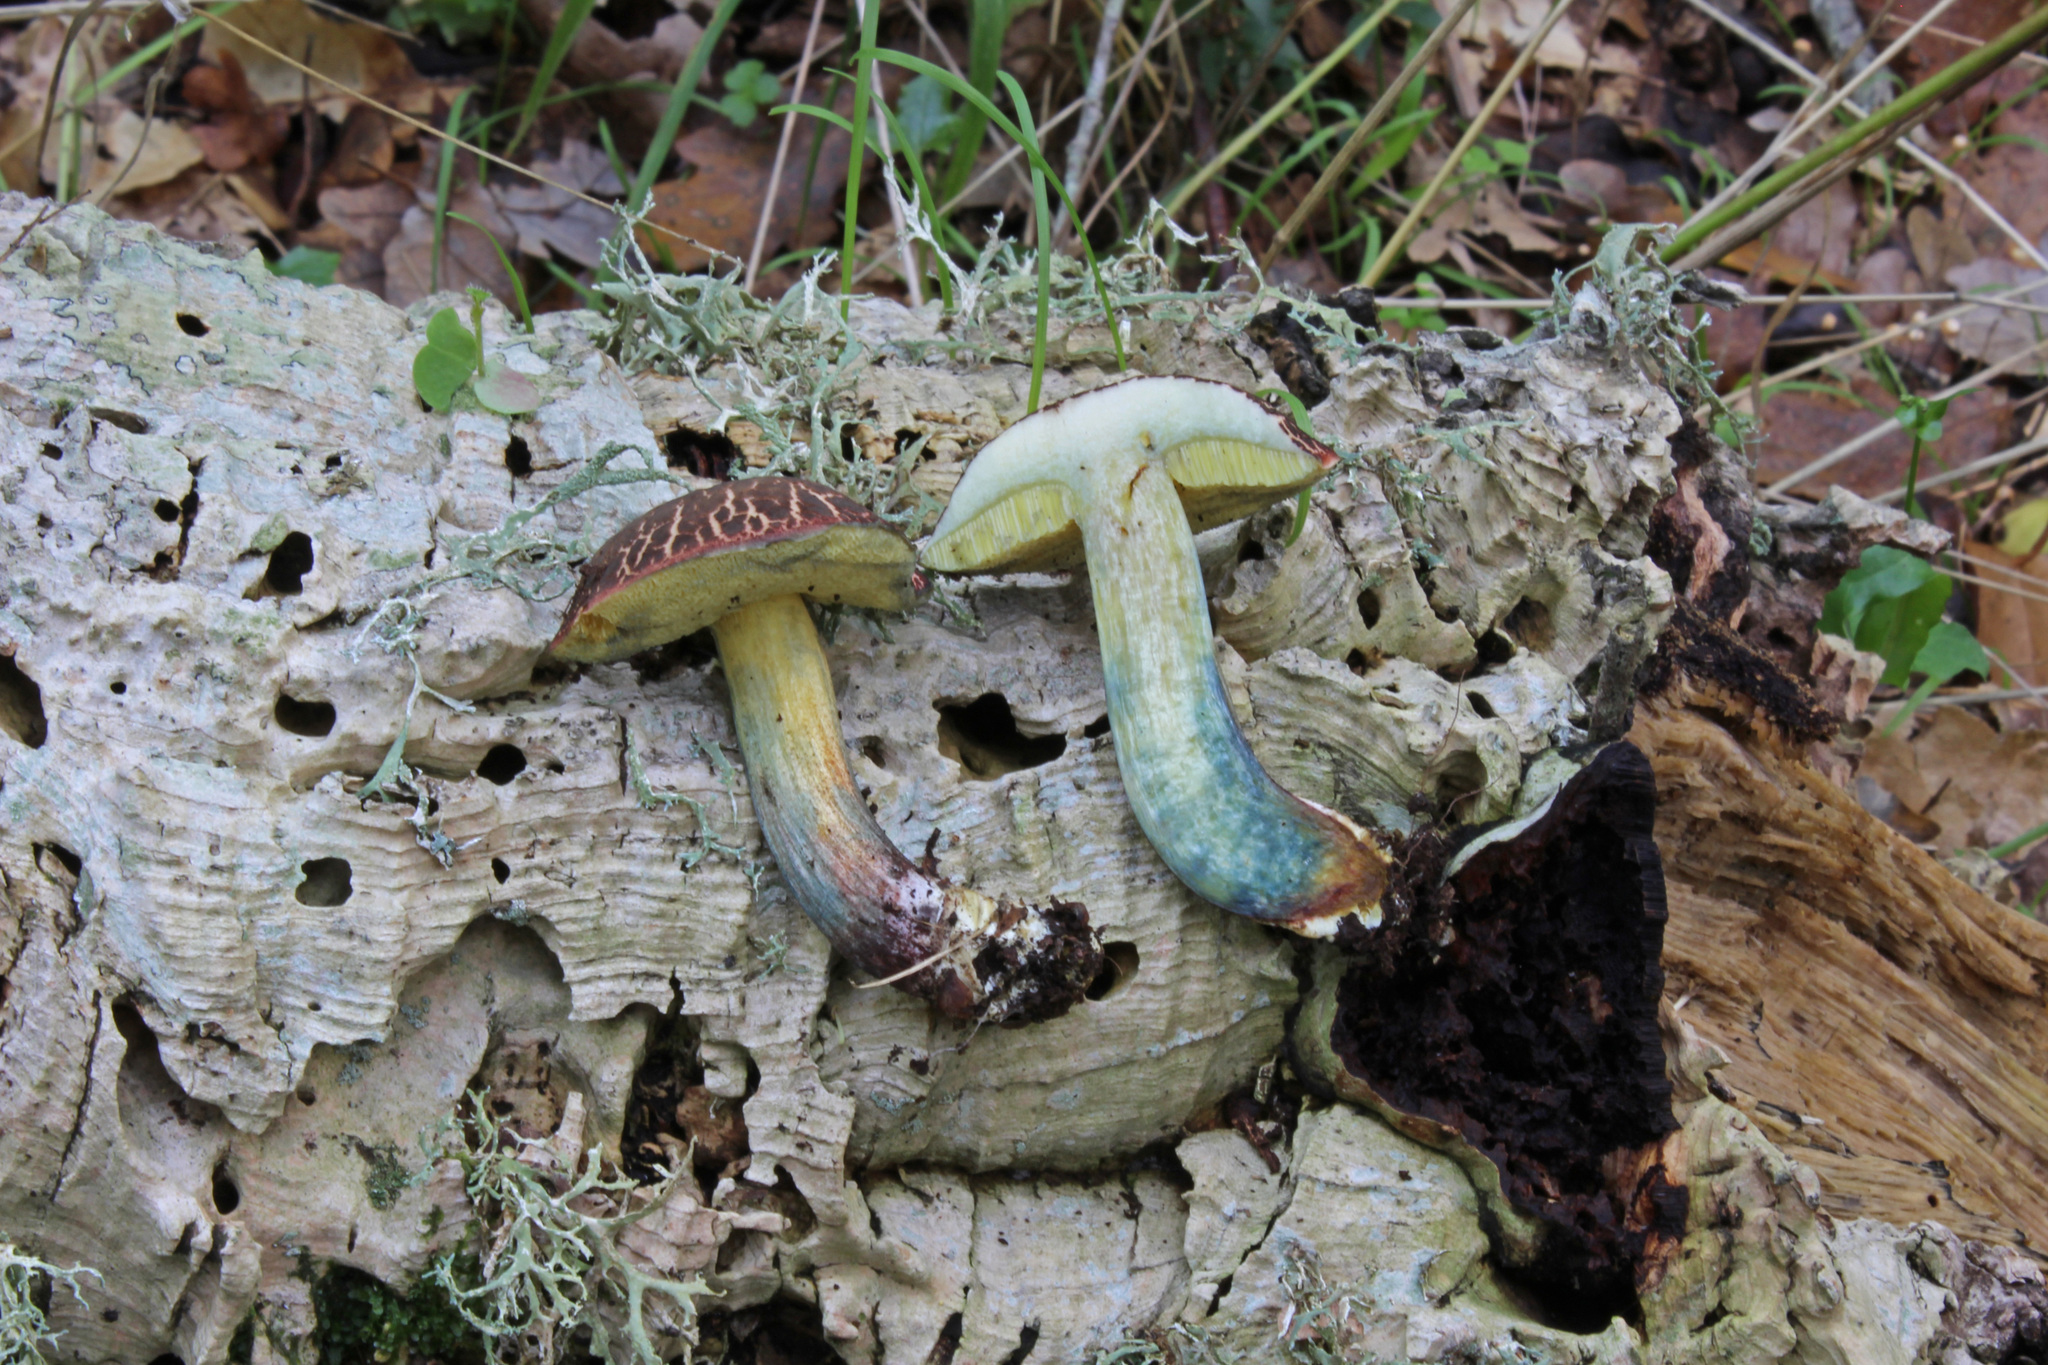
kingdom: Fungi
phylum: Basidiomycota
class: Agaricomycetes
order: Boletales
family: Boletaceae
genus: Xerocomellus
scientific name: Xerocomellus cisalpinus
